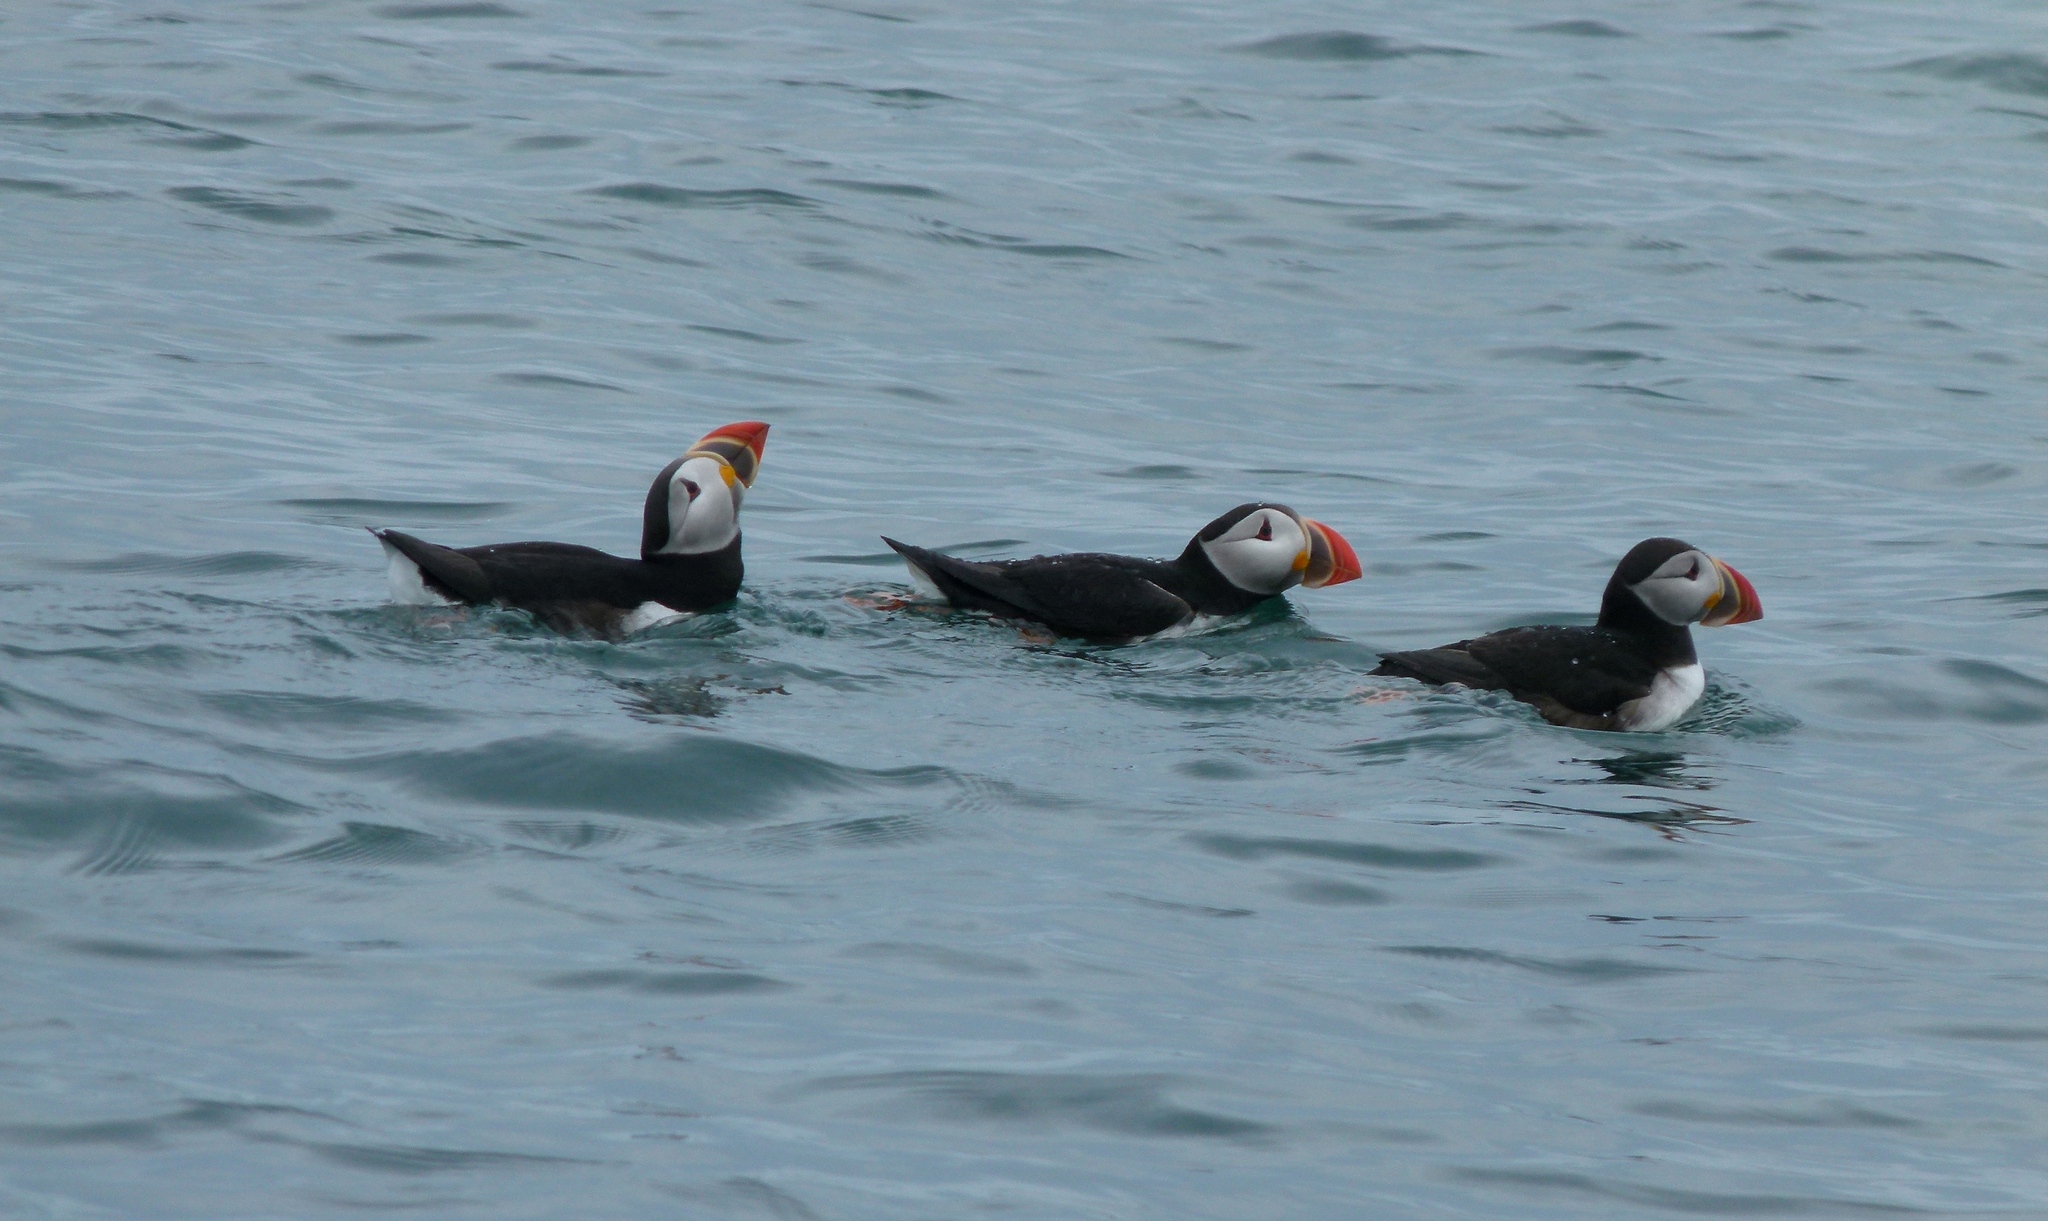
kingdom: Animalia
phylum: Chordata
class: Aves
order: Charadriiformes
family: Alcidae
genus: Fratercula
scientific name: Fratercula arctica
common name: Atlantic puffin
